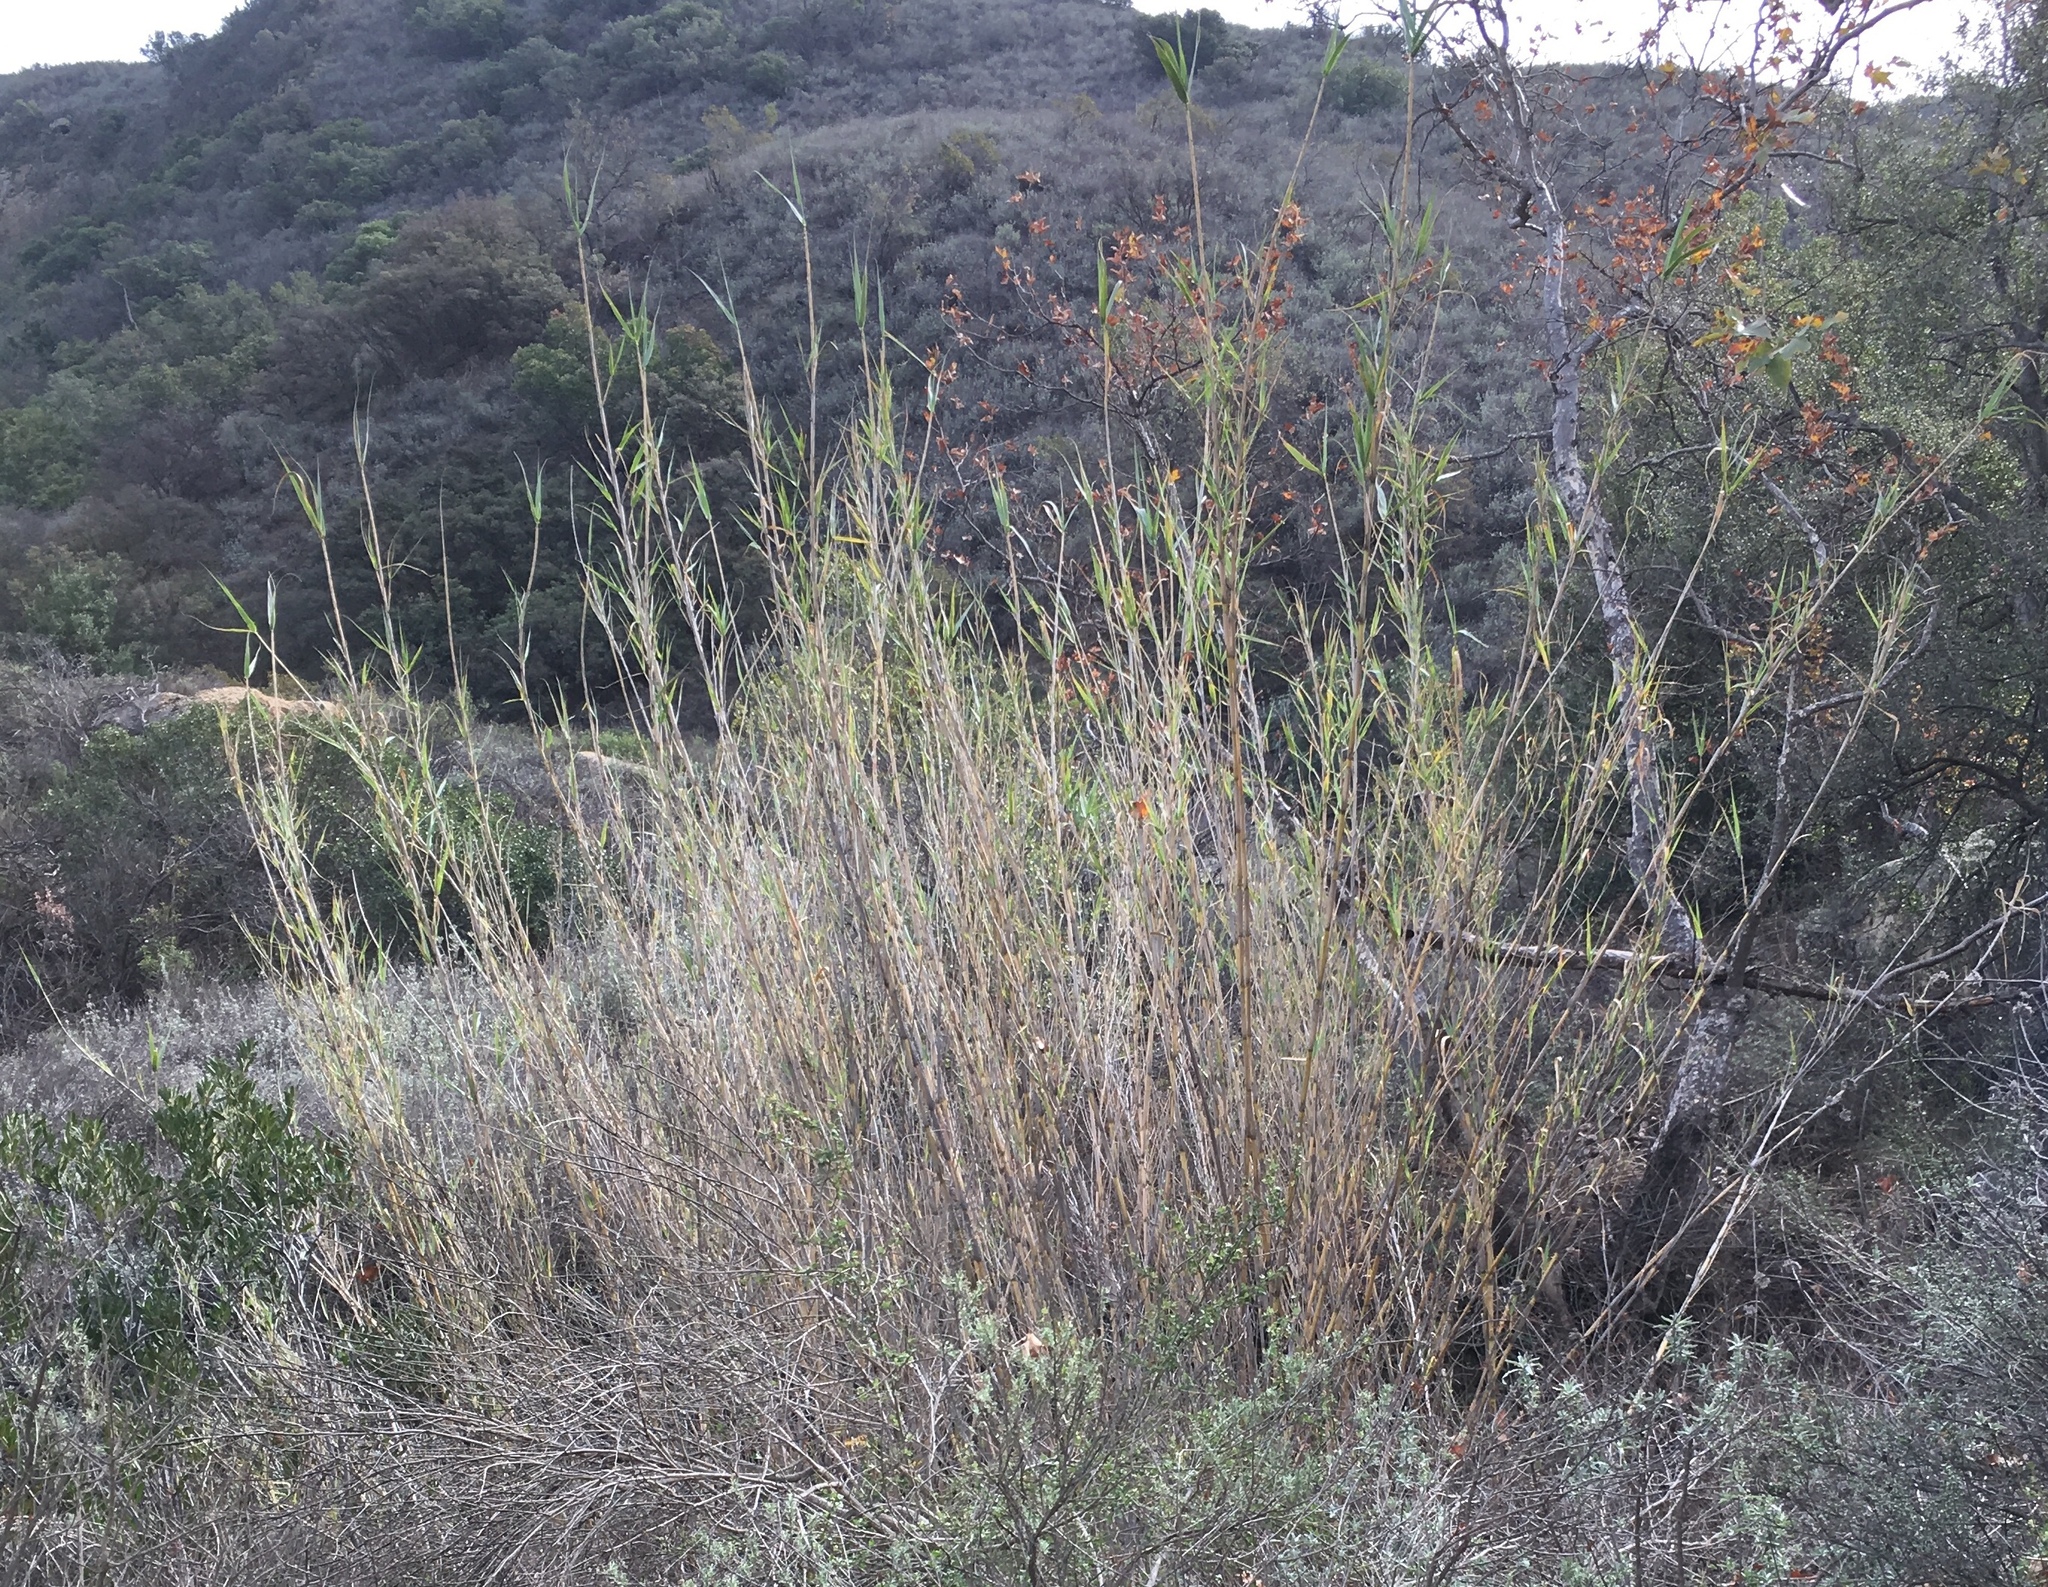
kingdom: Plantae
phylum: Tracheophyta
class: Liliopsida
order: Poales
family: Poaceae
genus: Arundo
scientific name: Arundo donax
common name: Giant reed
